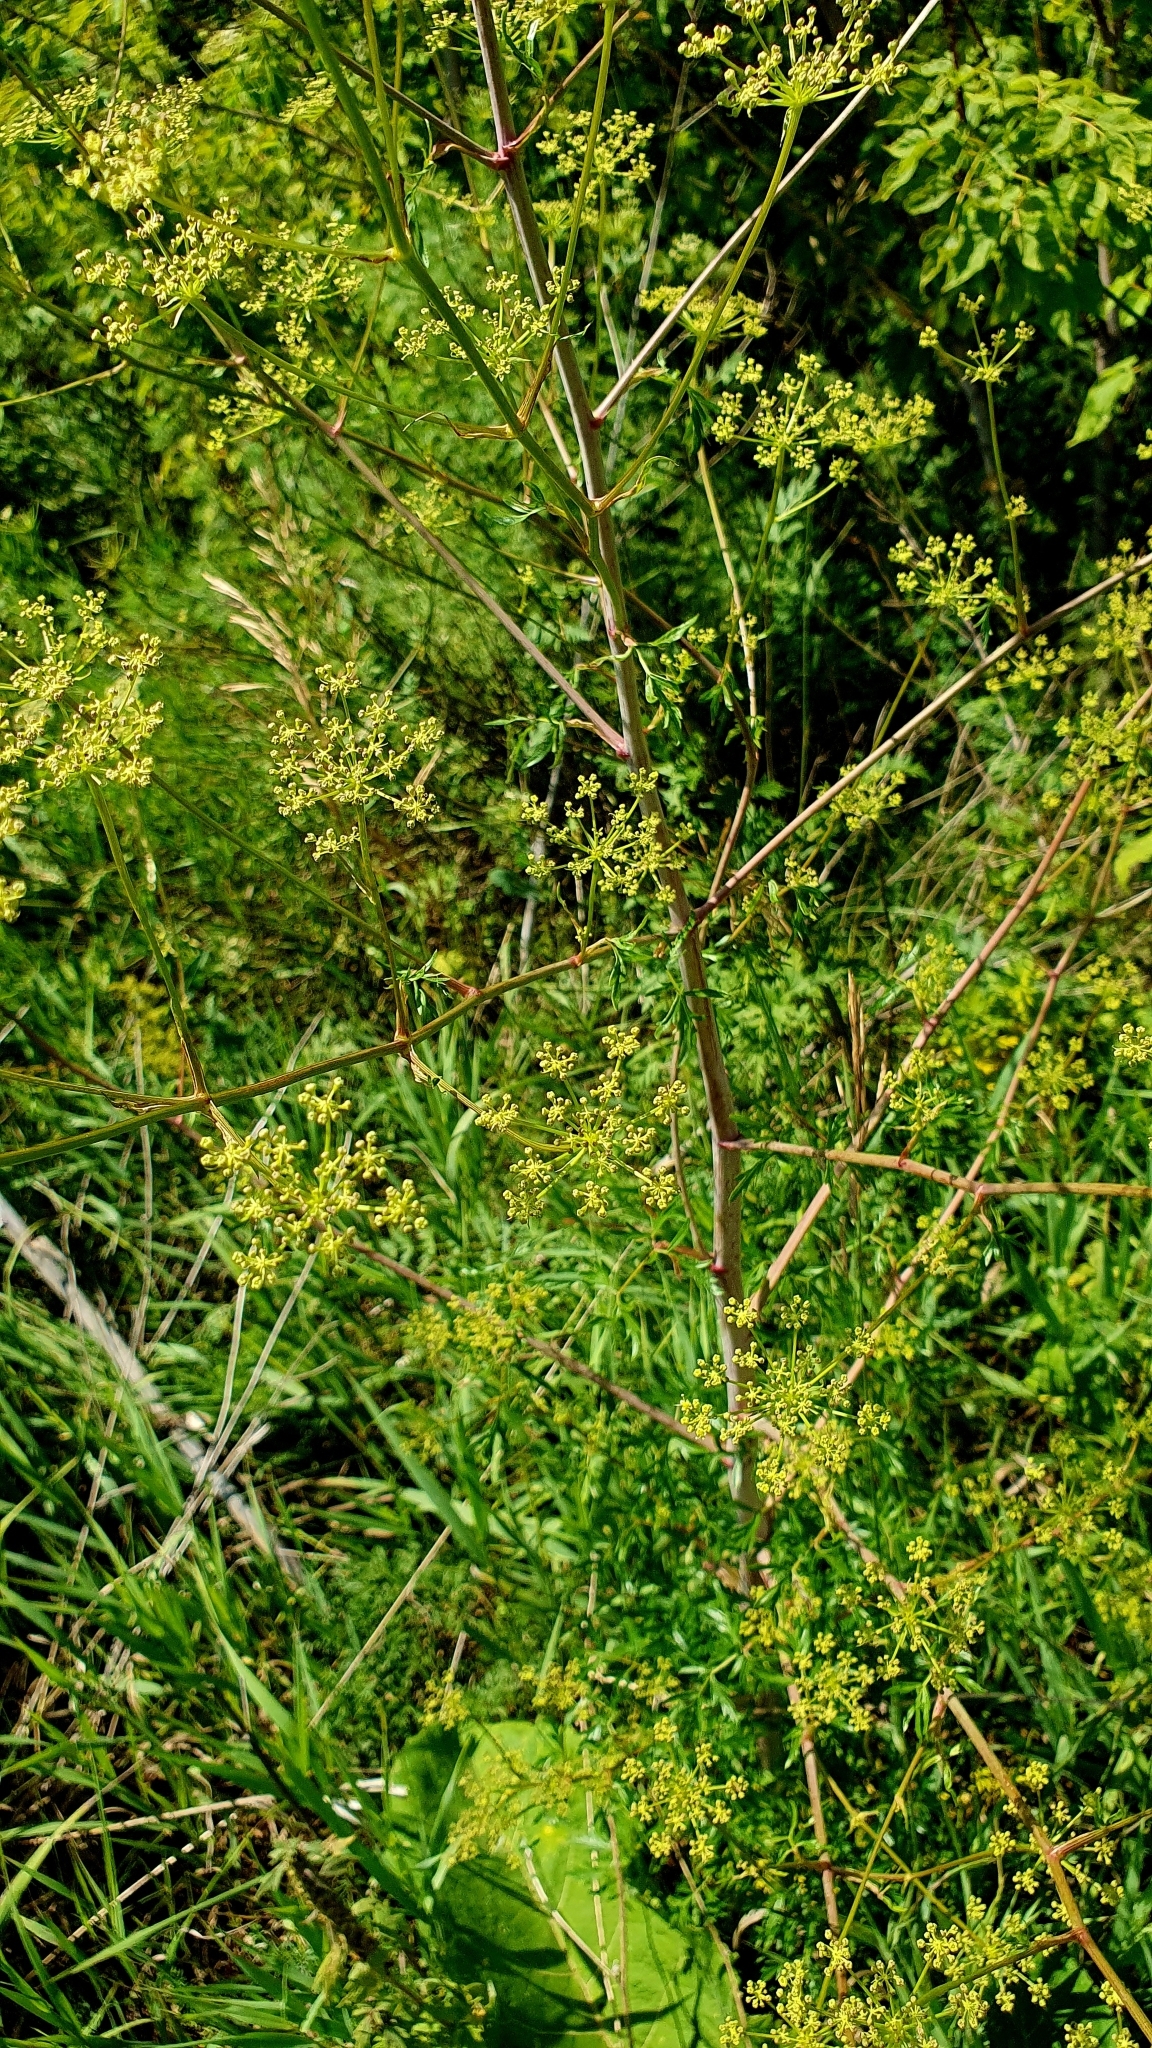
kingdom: Plantae
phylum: Tracheophyta
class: Magnoliopsida
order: Apiales
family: Apiaceae
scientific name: Apiaceae
